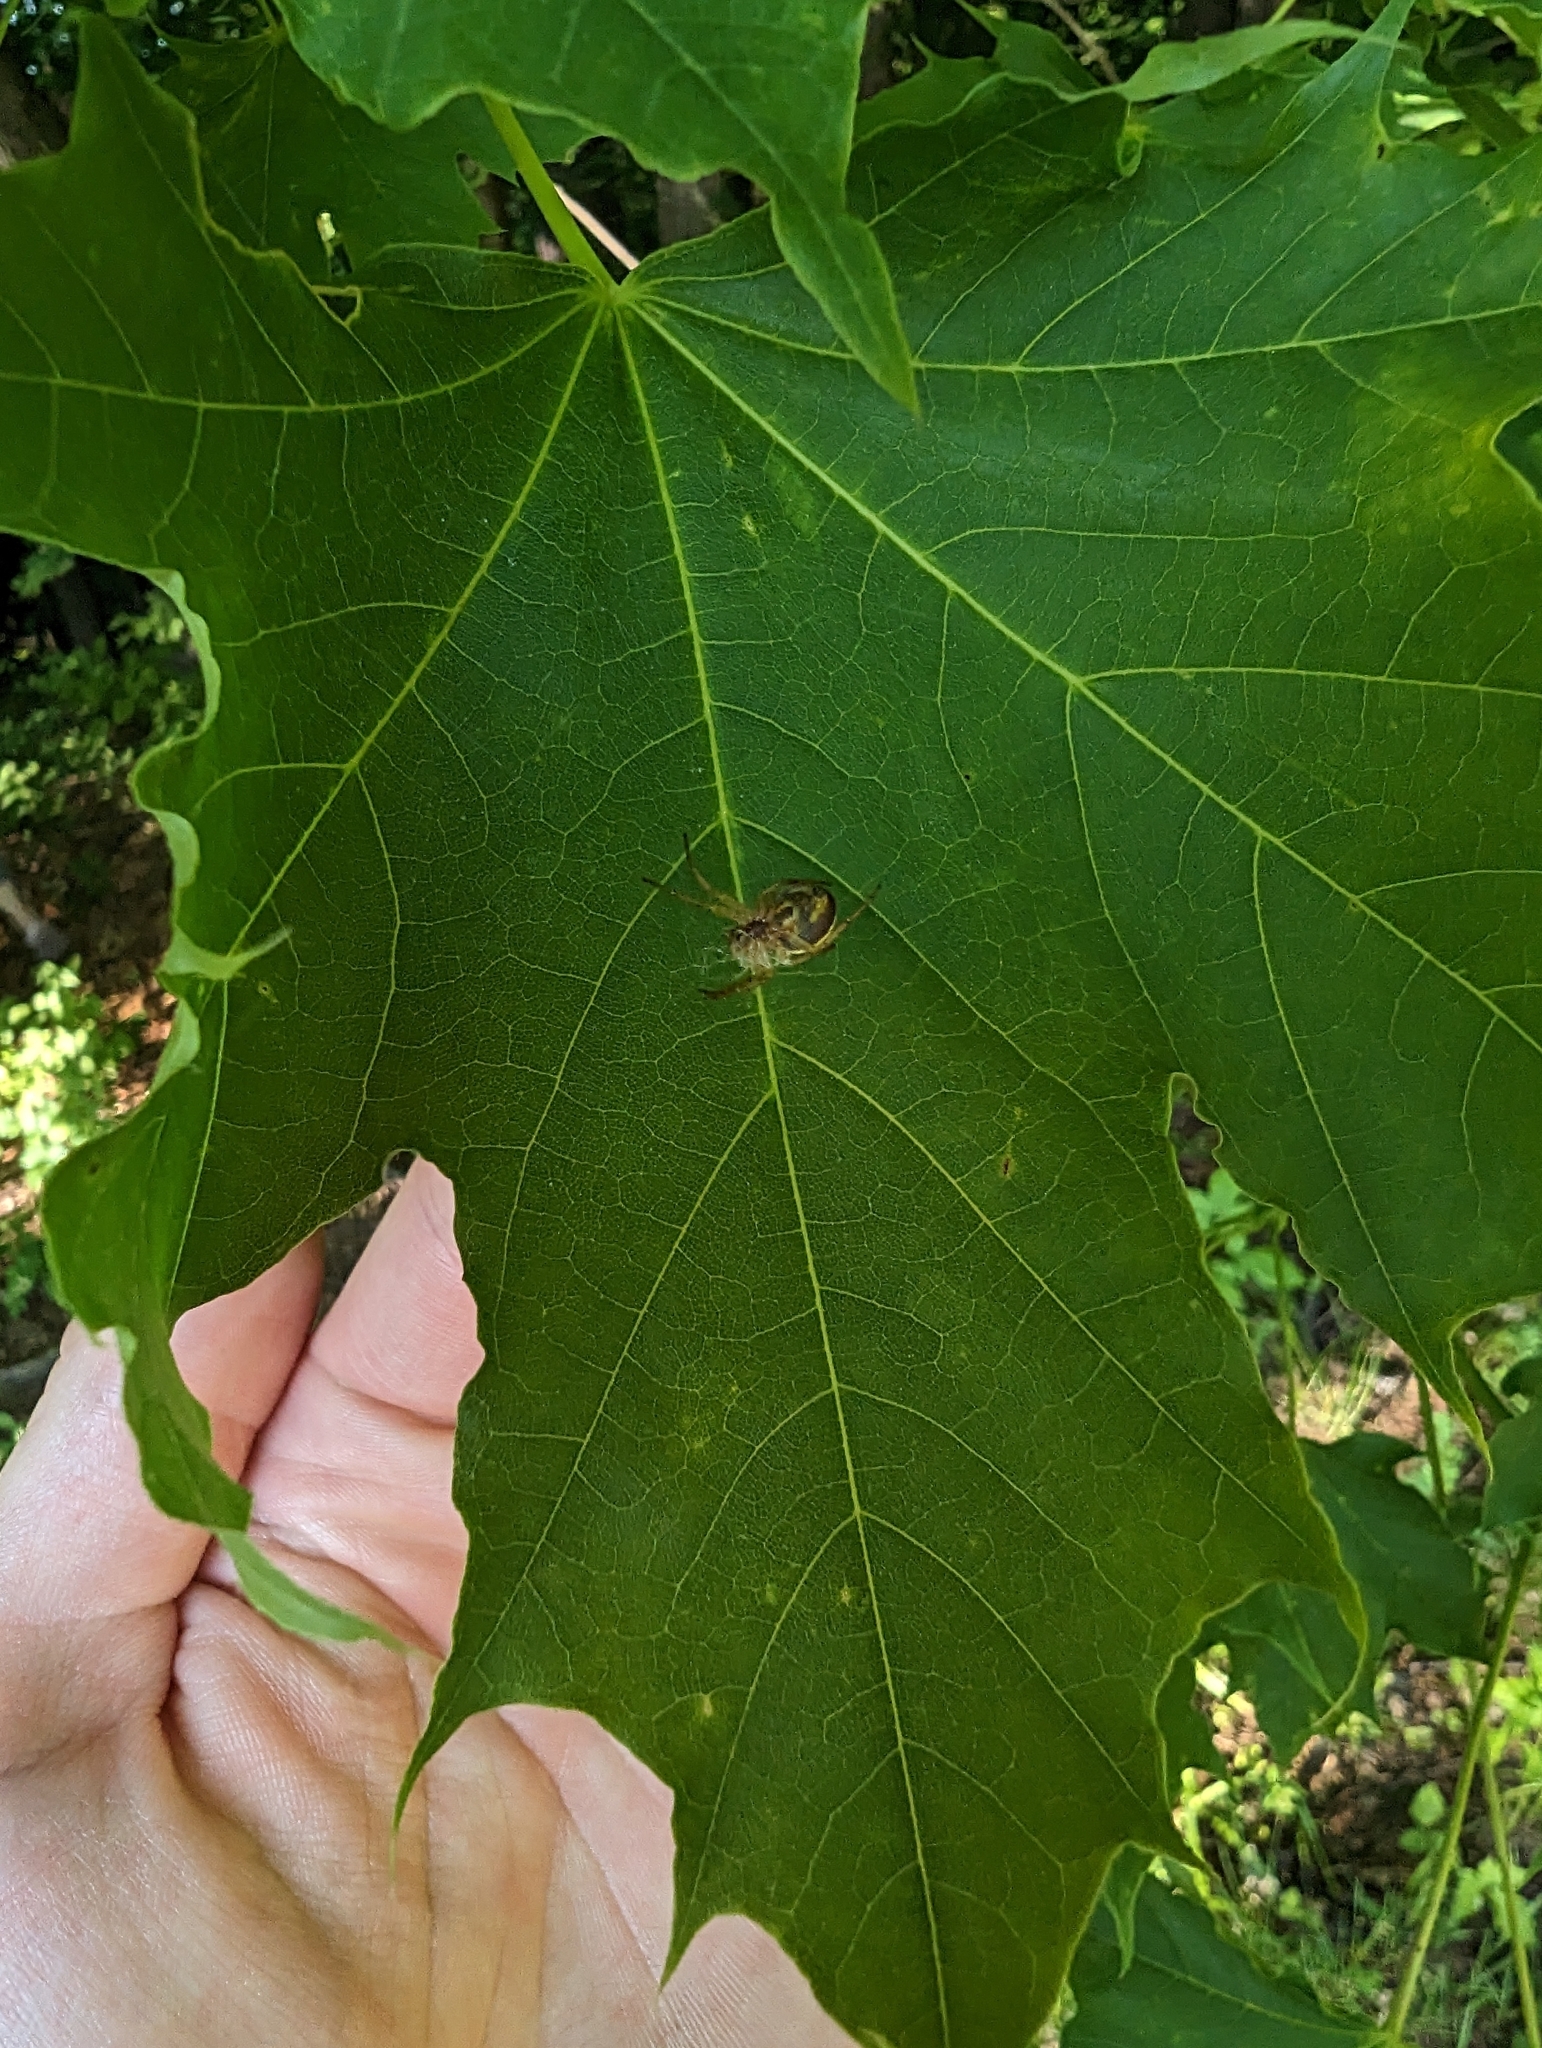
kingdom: Animalia
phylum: Arthropoda
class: Arachnida
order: Araneae
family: Araneidae
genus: Araniella
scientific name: Araniella displicata
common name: Sixspotted orb weaver
